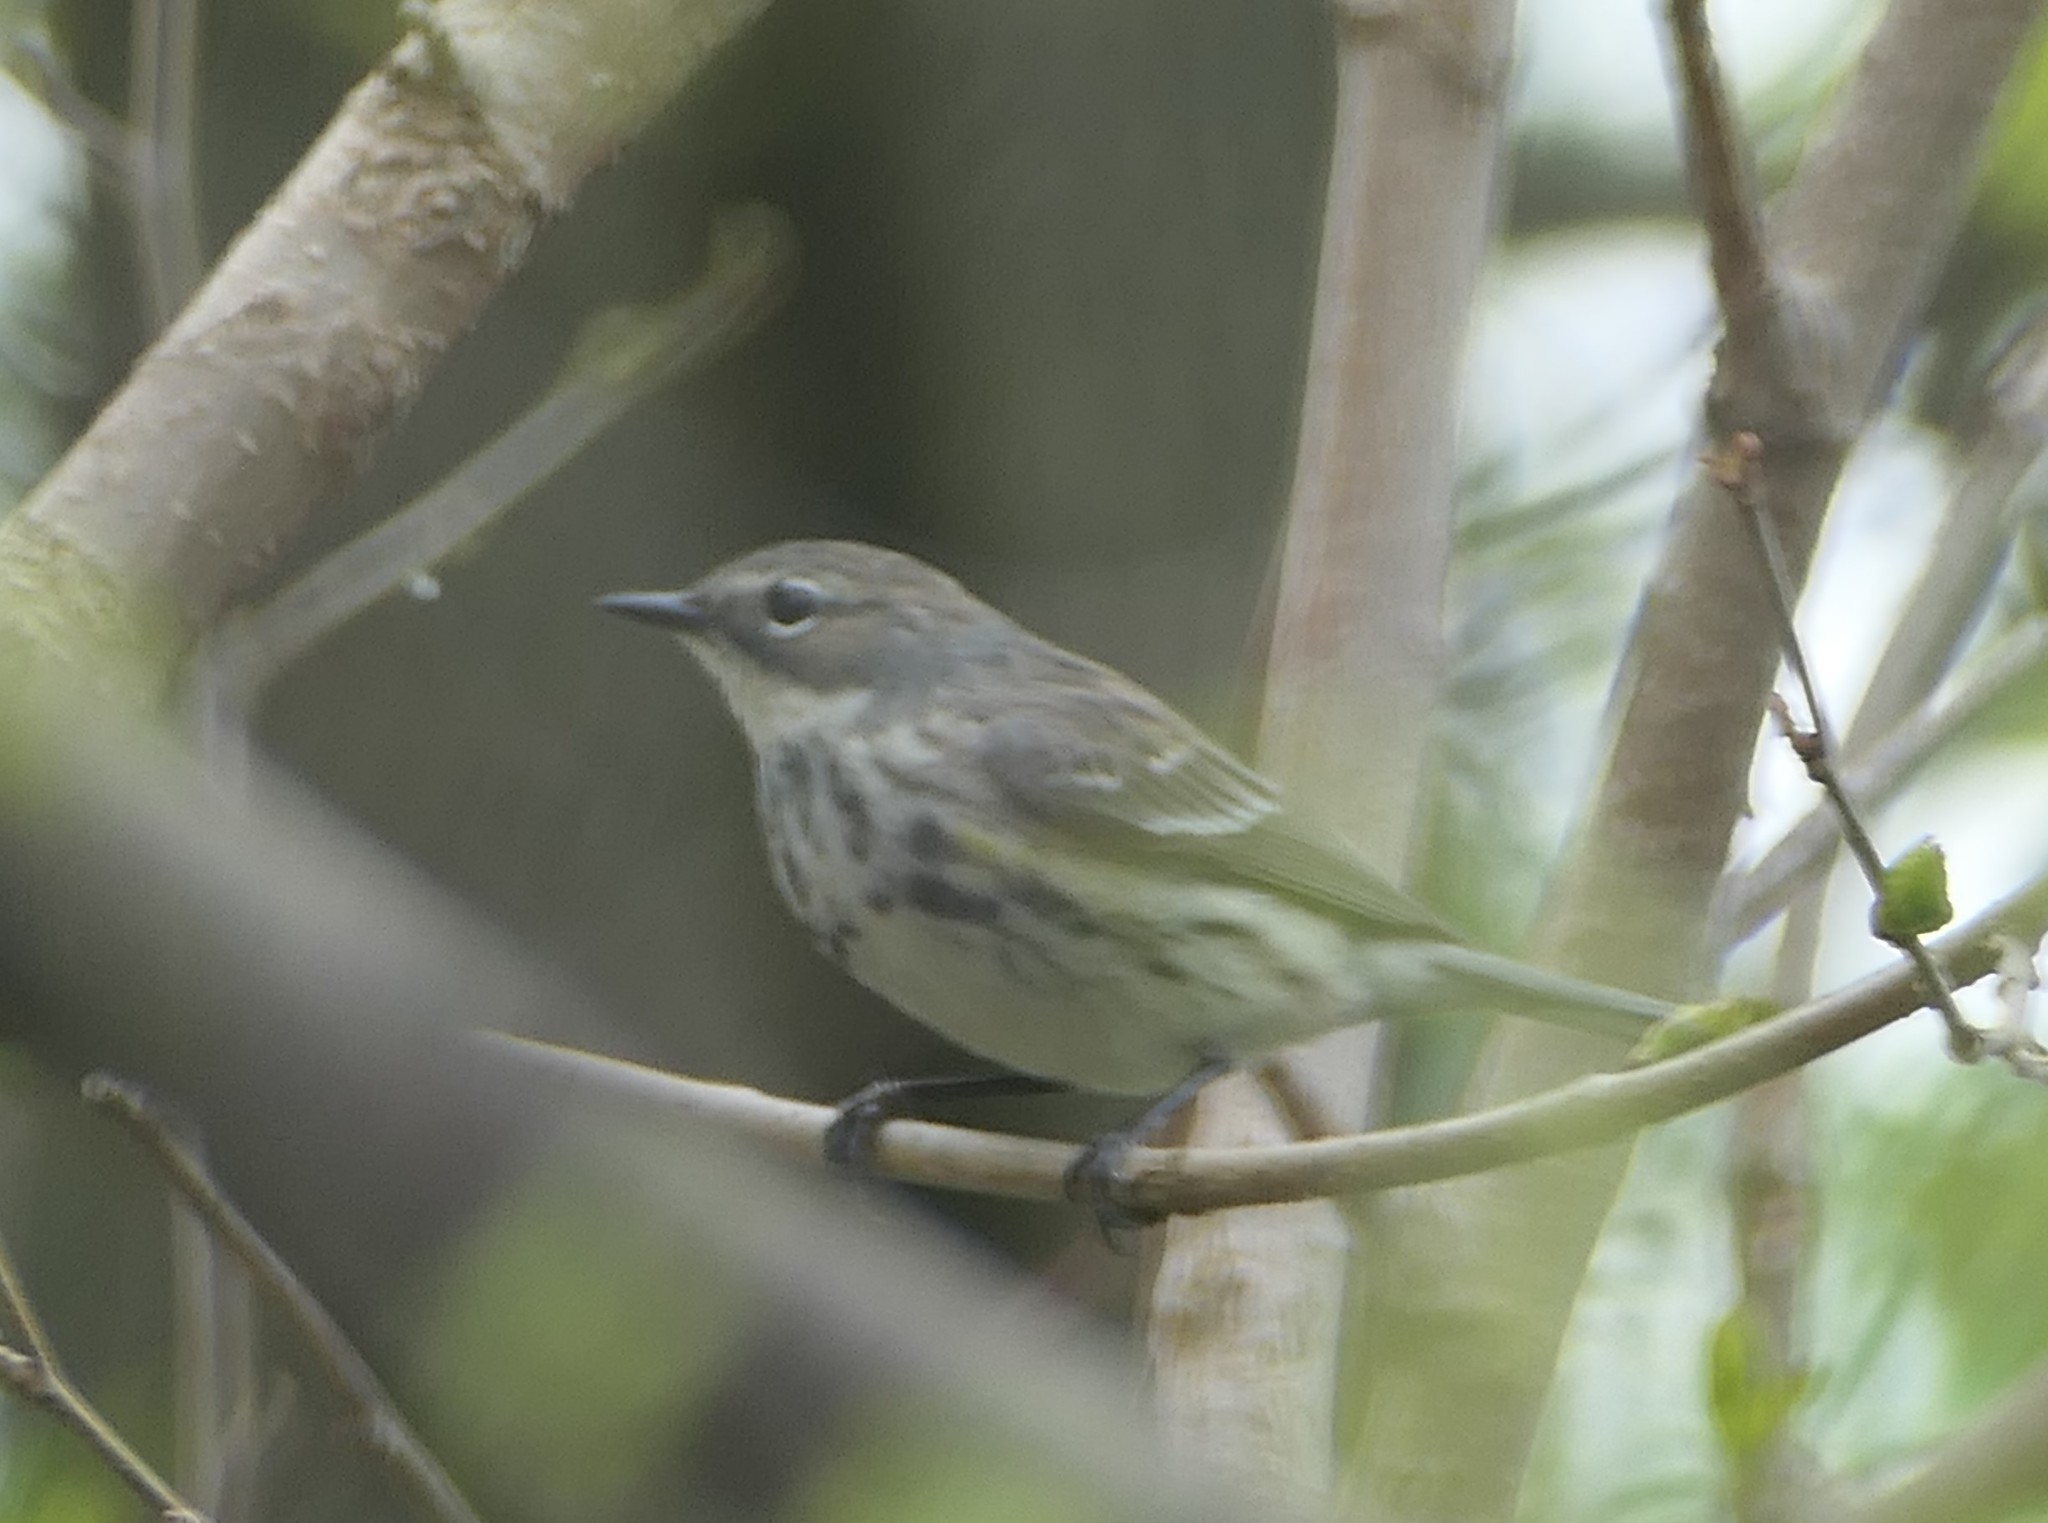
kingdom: Animalia
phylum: Chordata
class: Aves
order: Passeriformes
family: Parulidae
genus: Setophaga
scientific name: Setophaga coronata
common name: Myrtle warbler
